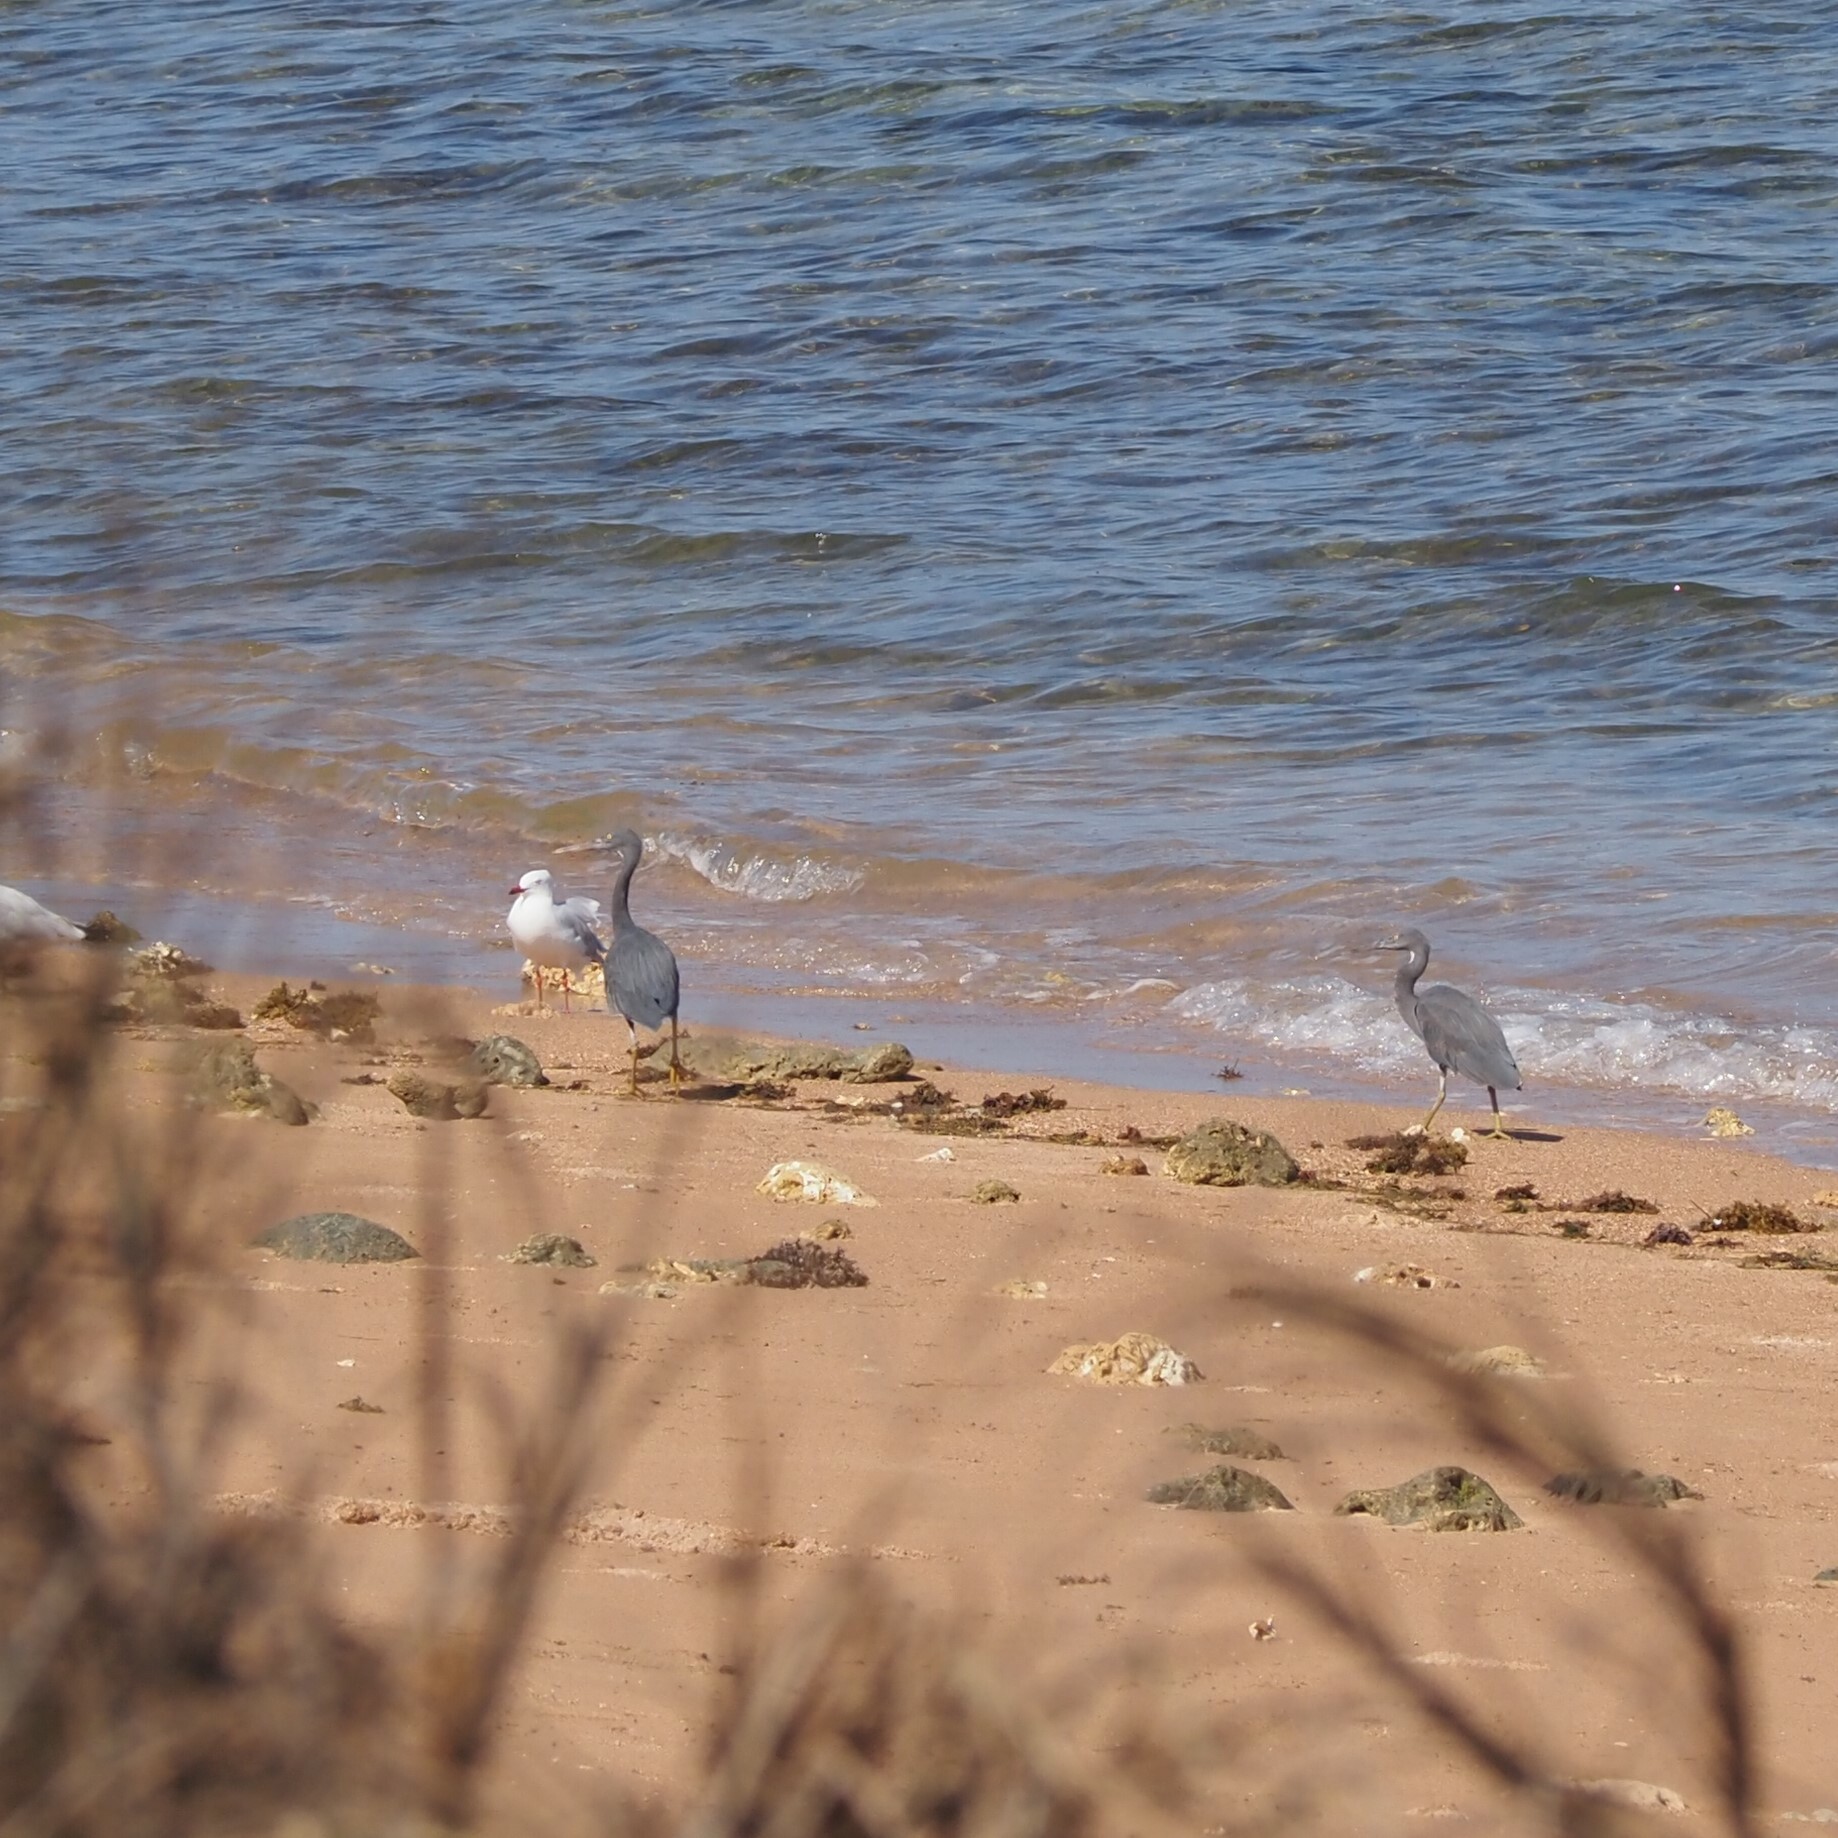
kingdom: Animalia
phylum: Chordata
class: Aves
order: Pelecaniformes
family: Ardeidae
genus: Egretta
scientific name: Egretta sacra
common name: Pacific reef heron
